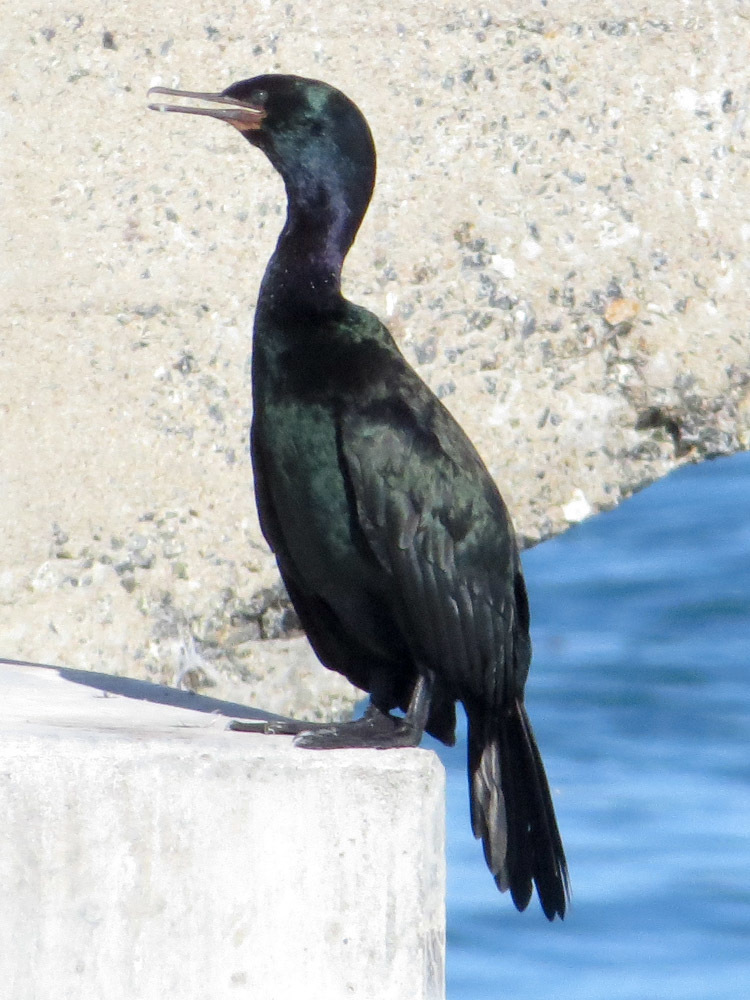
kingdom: Animalia
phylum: Chordata
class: Aves
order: Suliformes
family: Phalacrocoracidae
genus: Phalacrocorax
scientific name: Phalacrocorax pelagicus
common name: Pelagic cormorant
